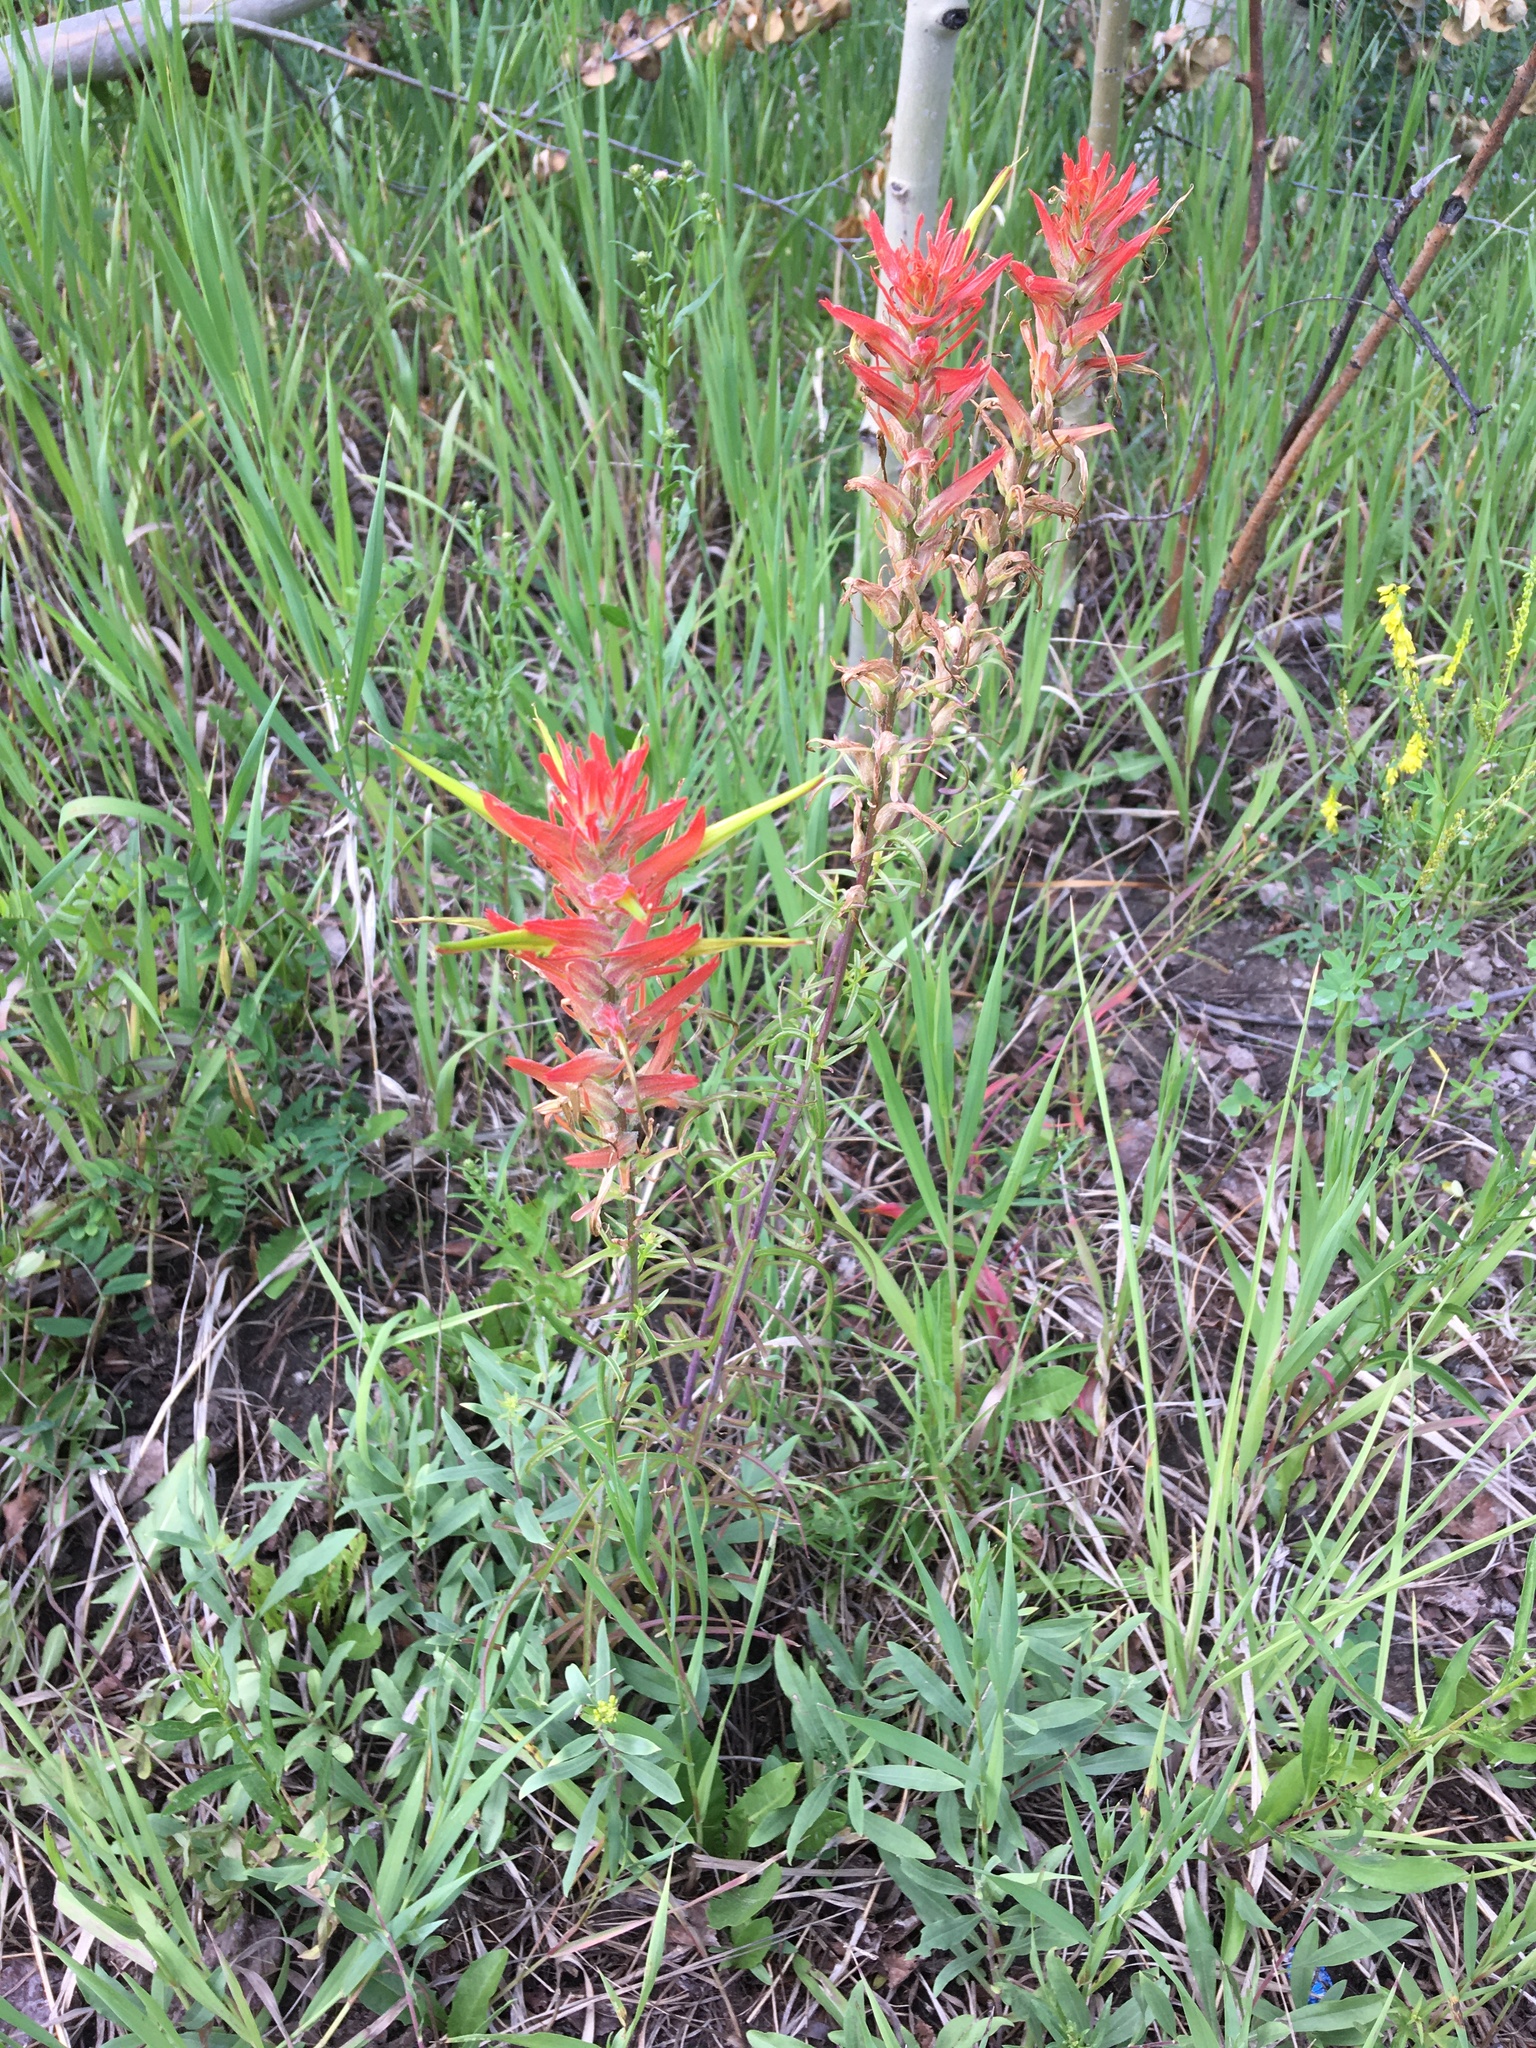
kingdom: Plantae
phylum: Tracheophyta
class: Magnoliopsida
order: Lamiales
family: Orobanchaceae
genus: Castilleja
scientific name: Castilleja linariifolia
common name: Wyoming paintbrush
